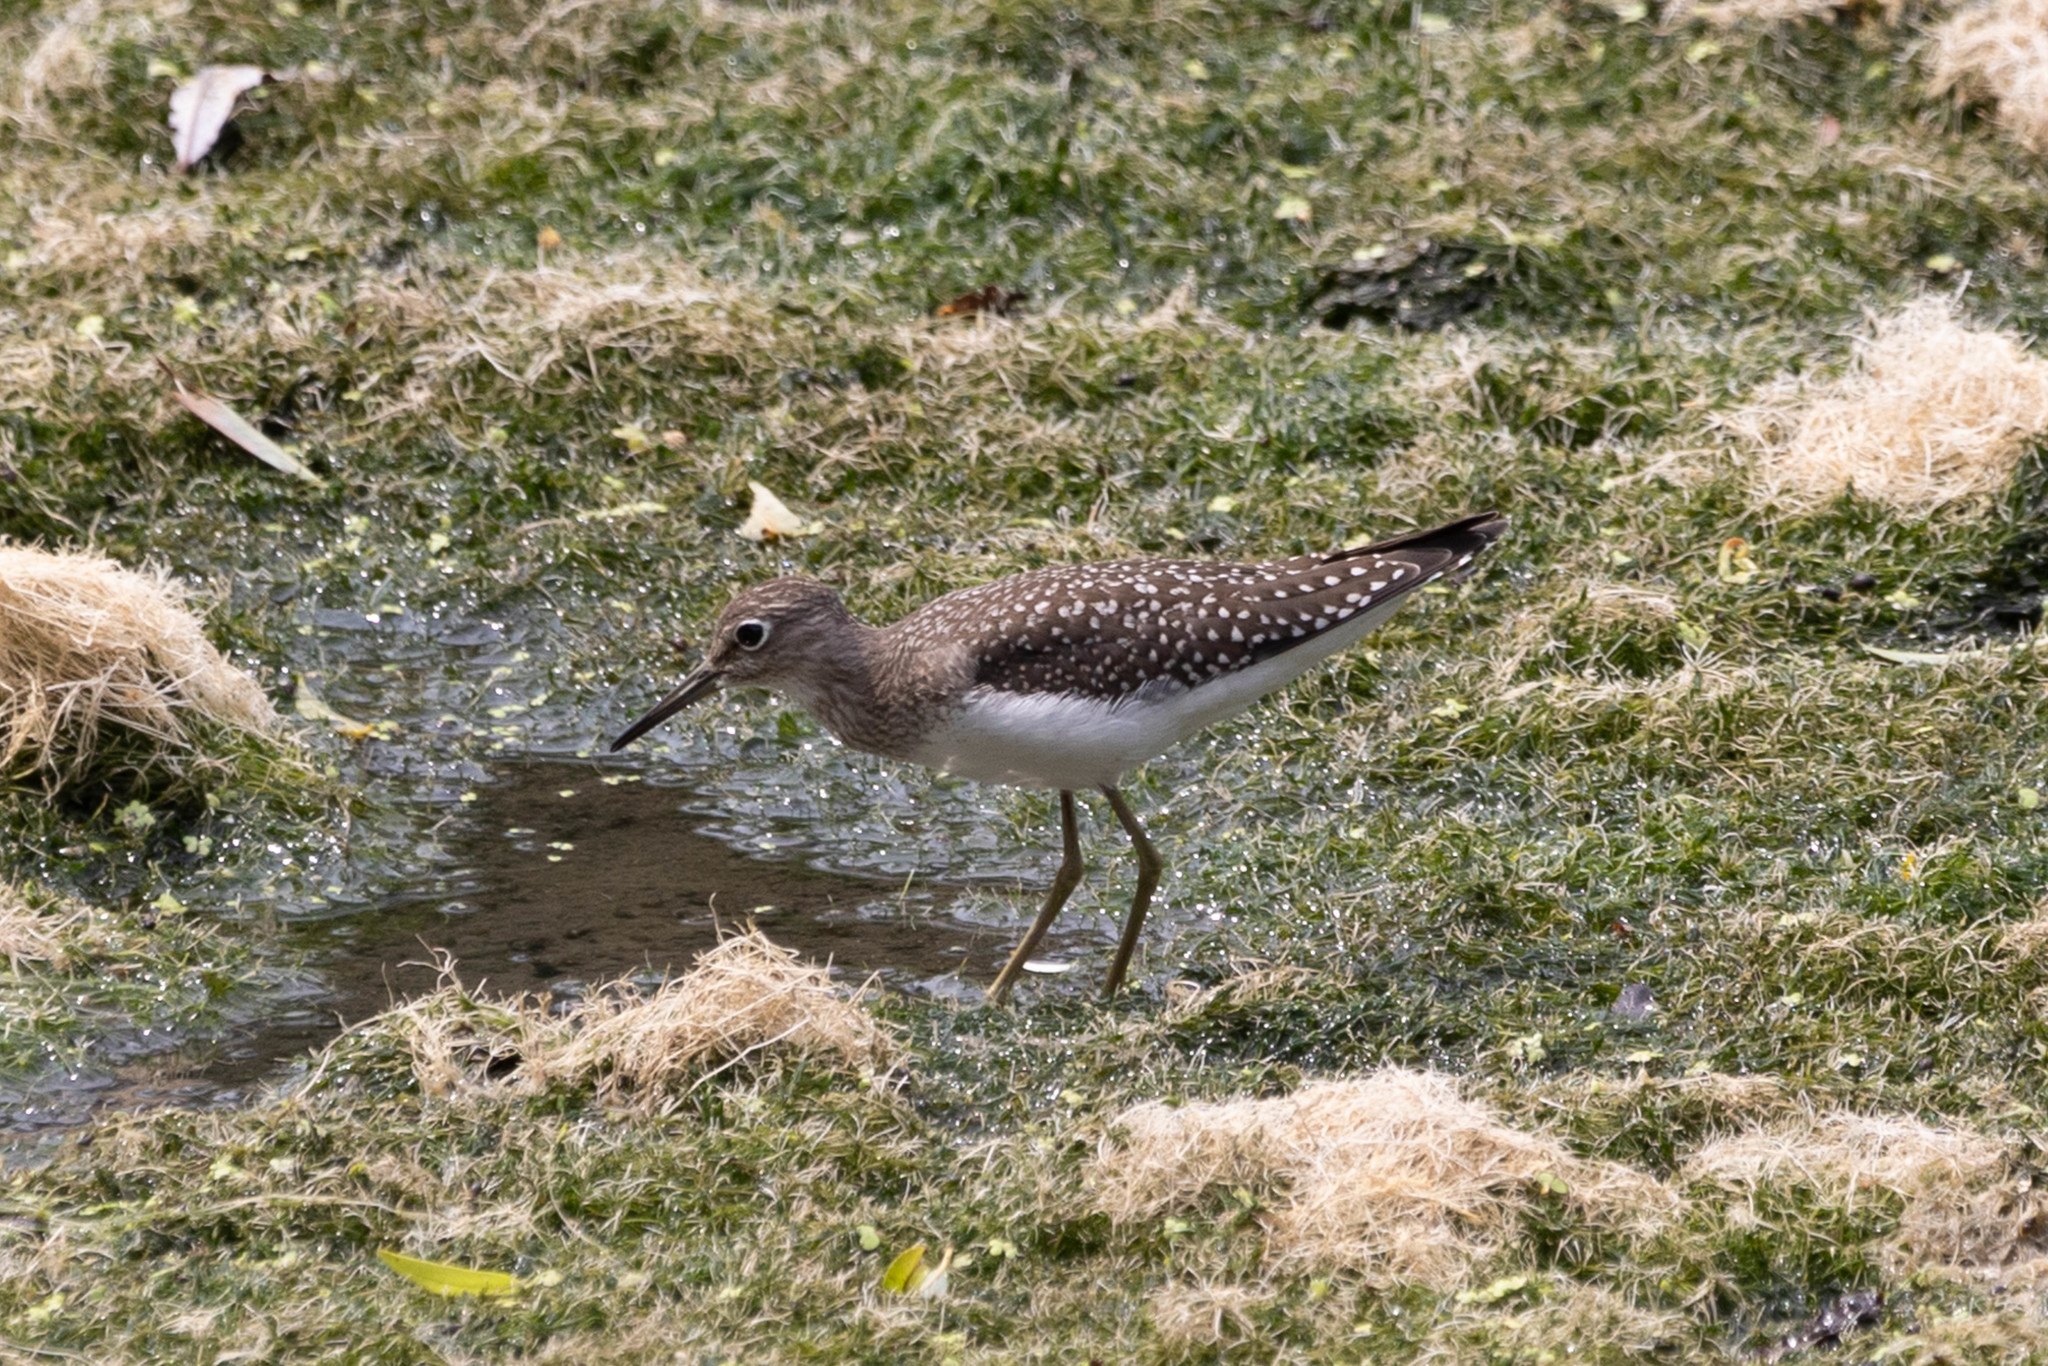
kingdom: Animalia
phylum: Chordata
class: Aves
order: Charadriiformes
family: Scolopacidae
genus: Tringa
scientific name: Tringa solitaria
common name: Solitary sandpiper
